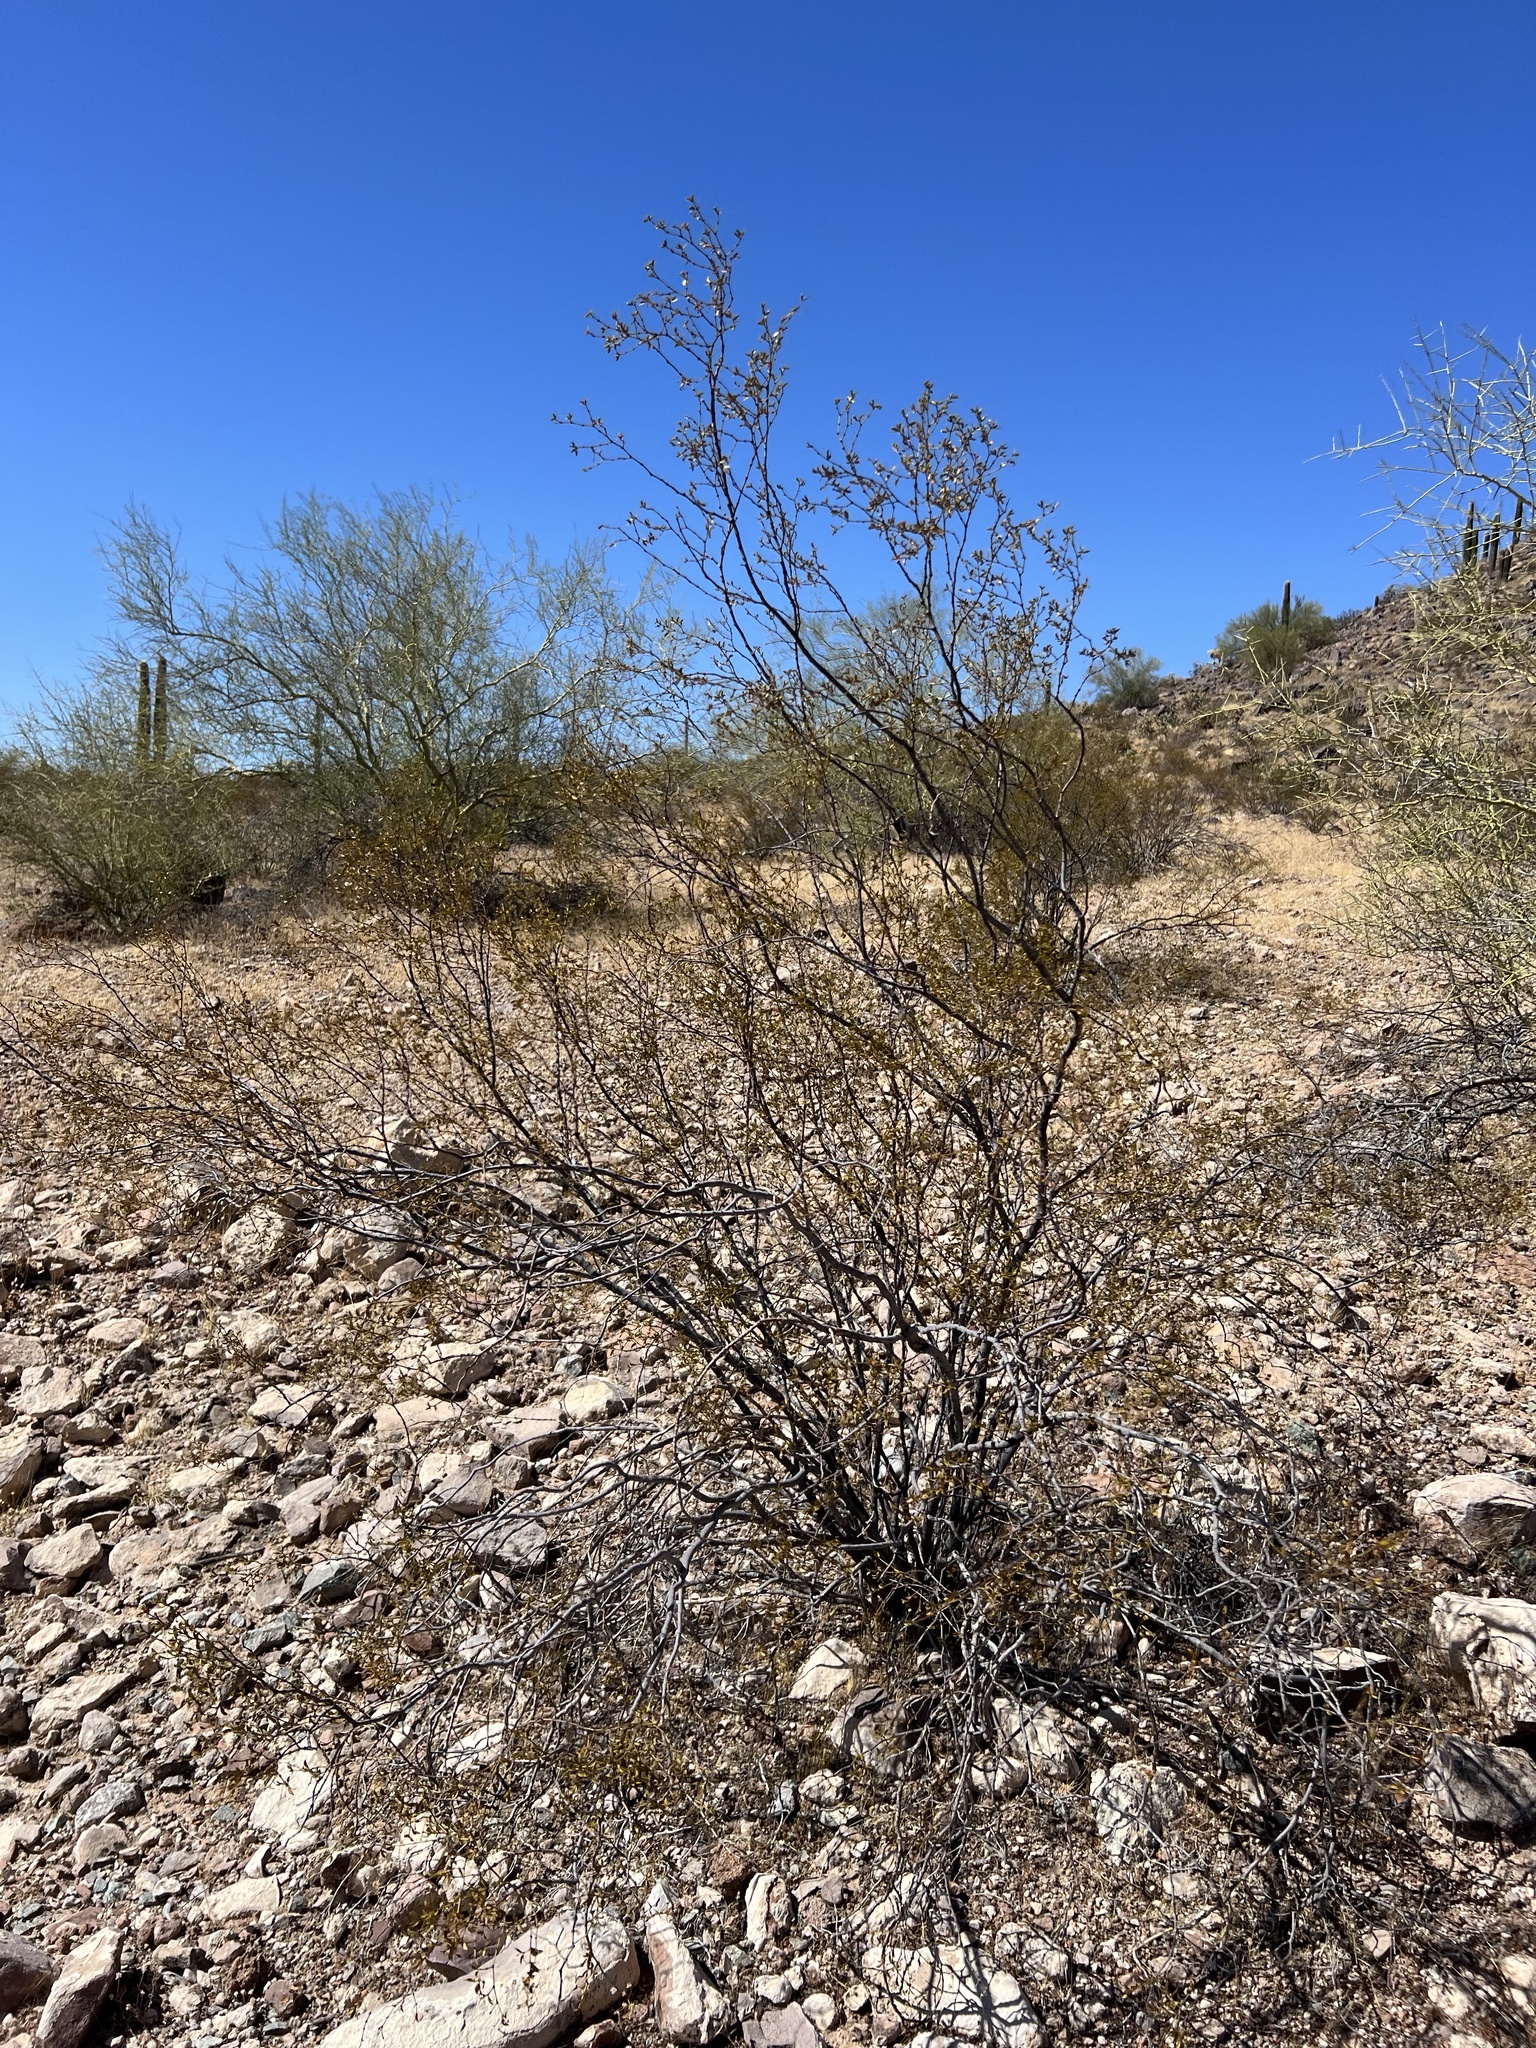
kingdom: Plantae
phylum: Tracheophyta
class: Magnoliopsida
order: Zygophyllales
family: Zygophyllaceae
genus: Larrea
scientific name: Larrea tridentata
